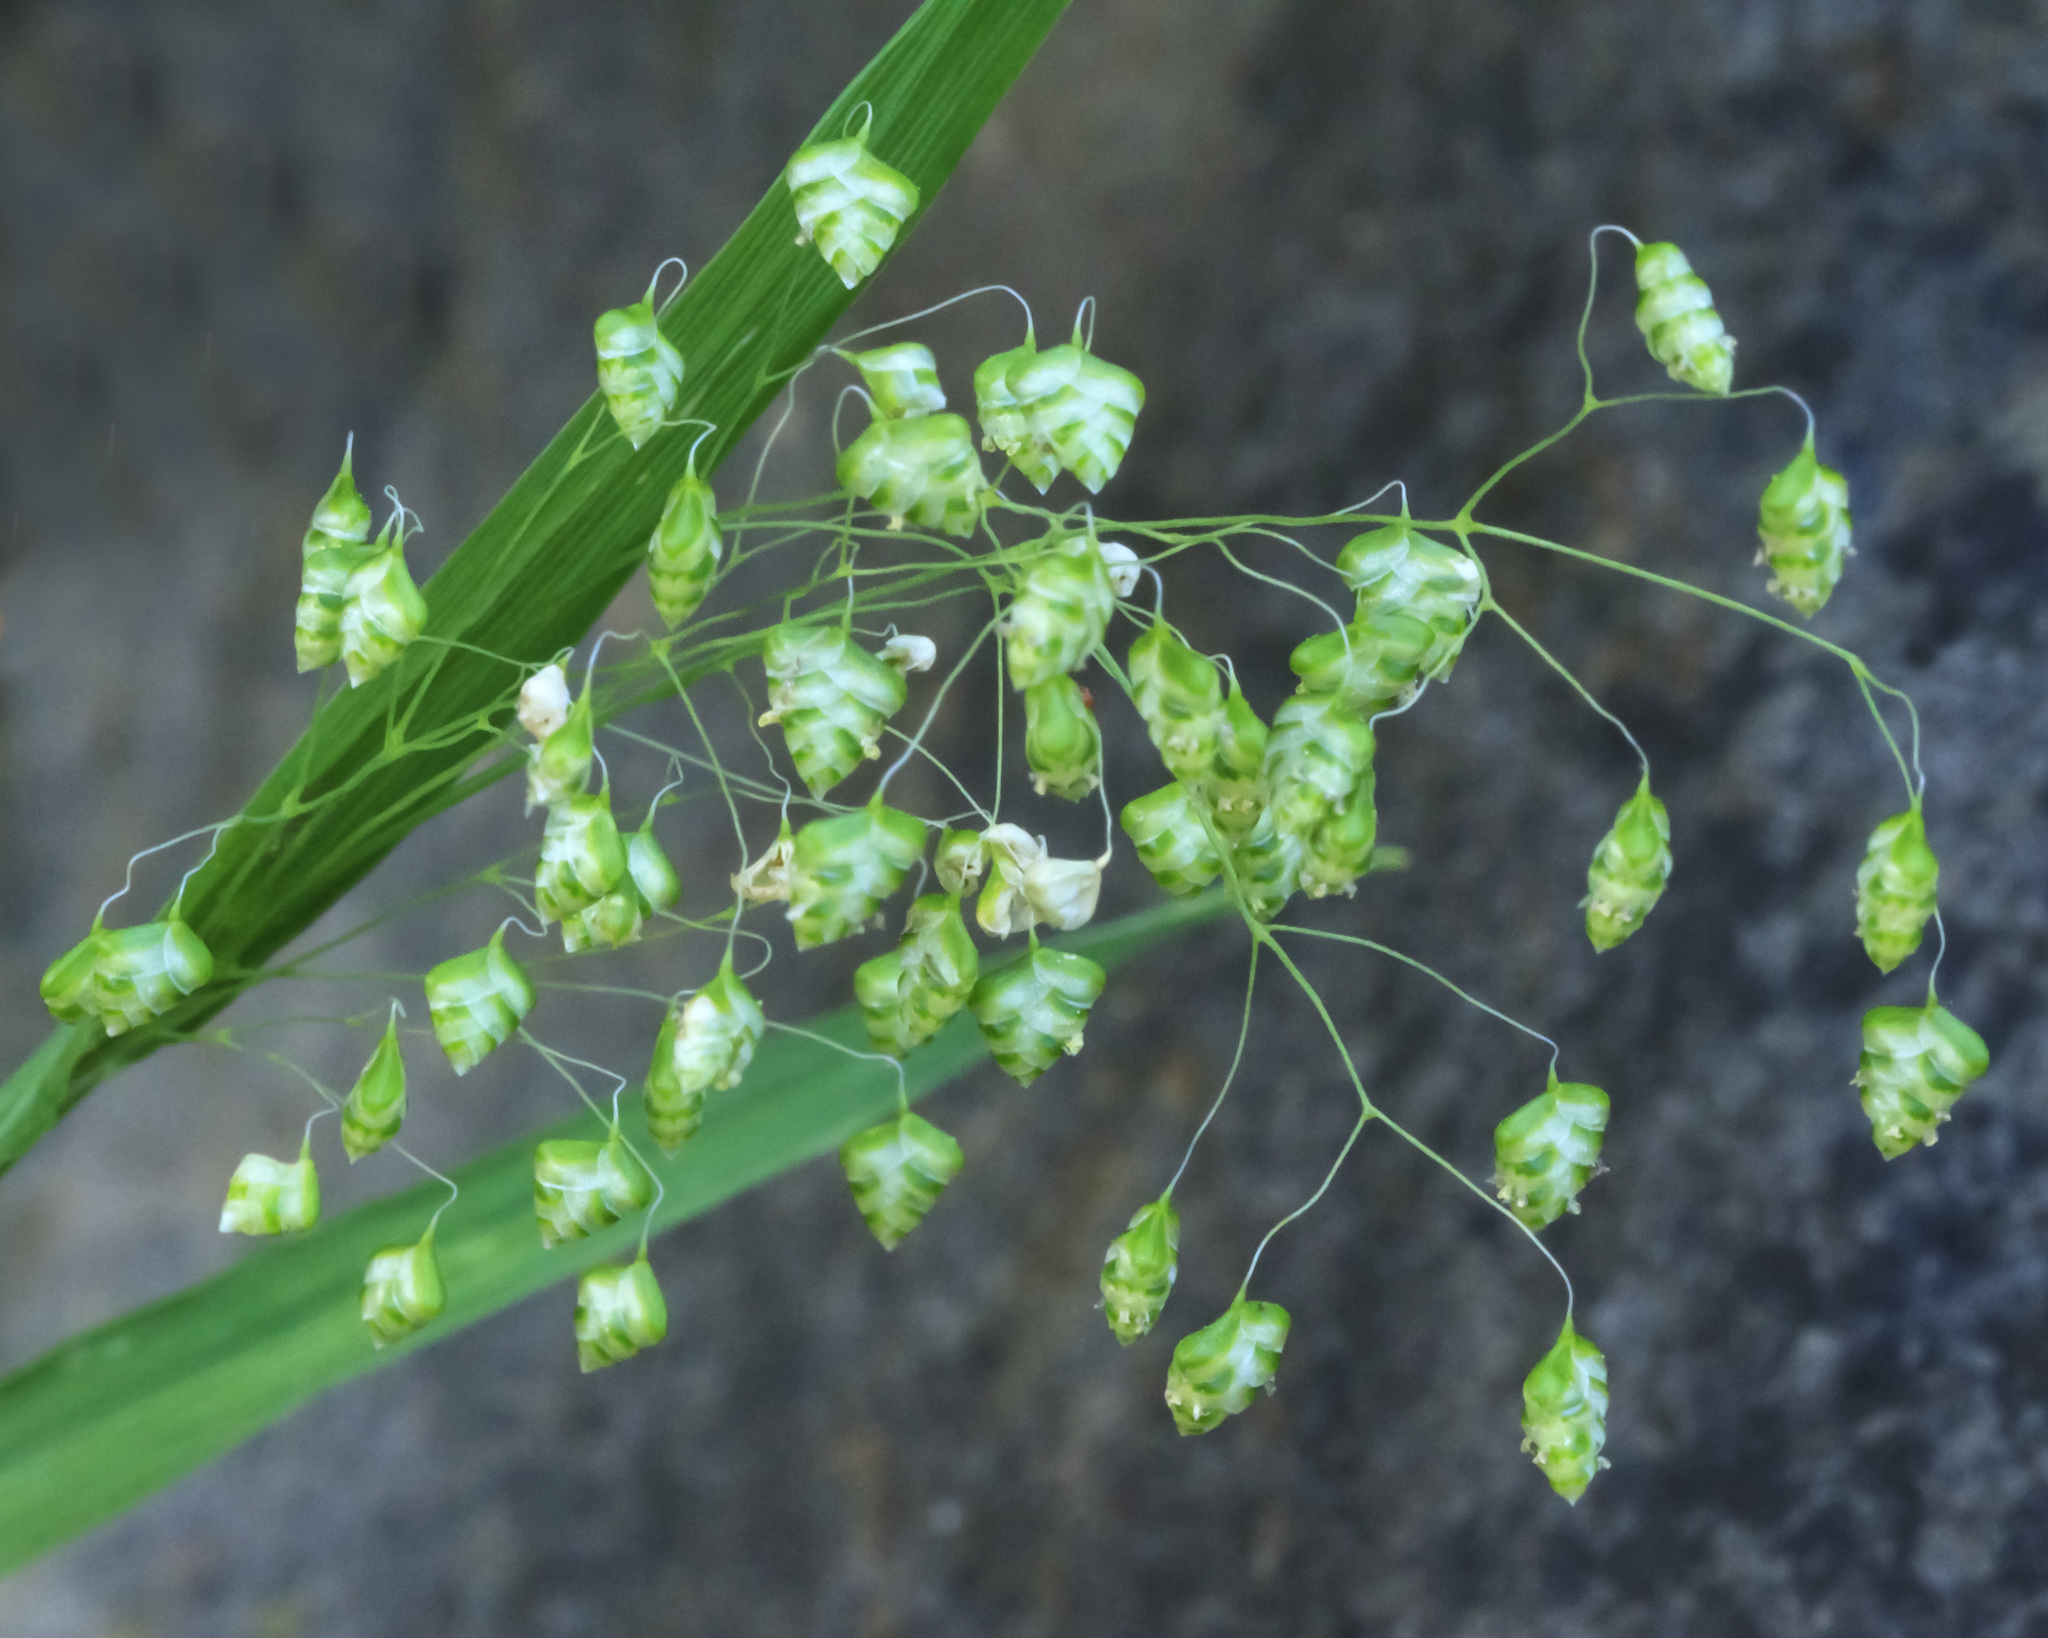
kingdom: Plantae
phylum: Tracheophyta
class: Liliopsida
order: Poales
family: Poaceae
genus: Briza
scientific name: Briza minor
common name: Lesser quaking-grass
